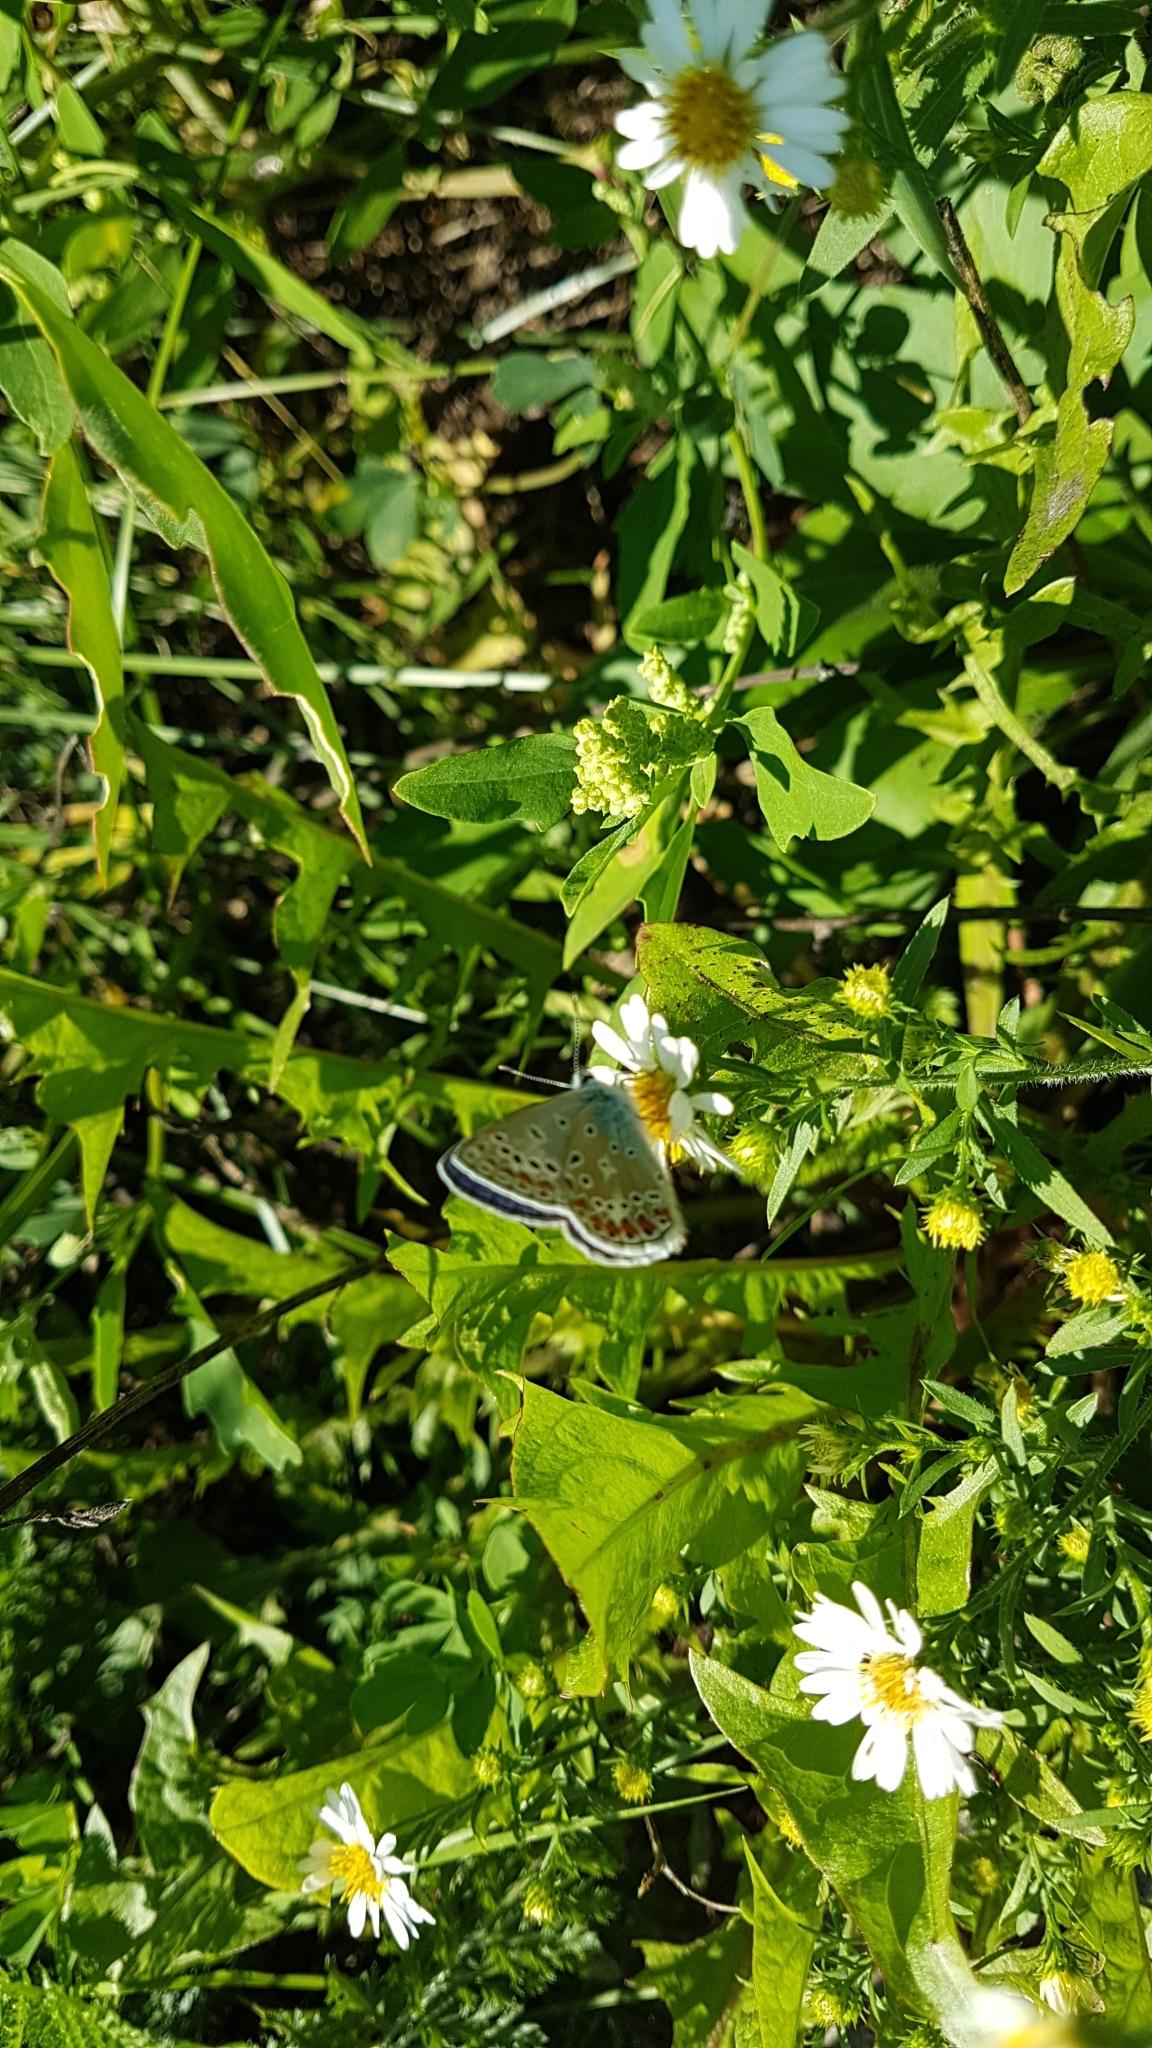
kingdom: Animalia
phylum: Arthropoda
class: Insecta
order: Lepidoptera
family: Lycaenidae
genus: Polyommatus
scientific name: Polyommatus icarus
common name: Common blue
